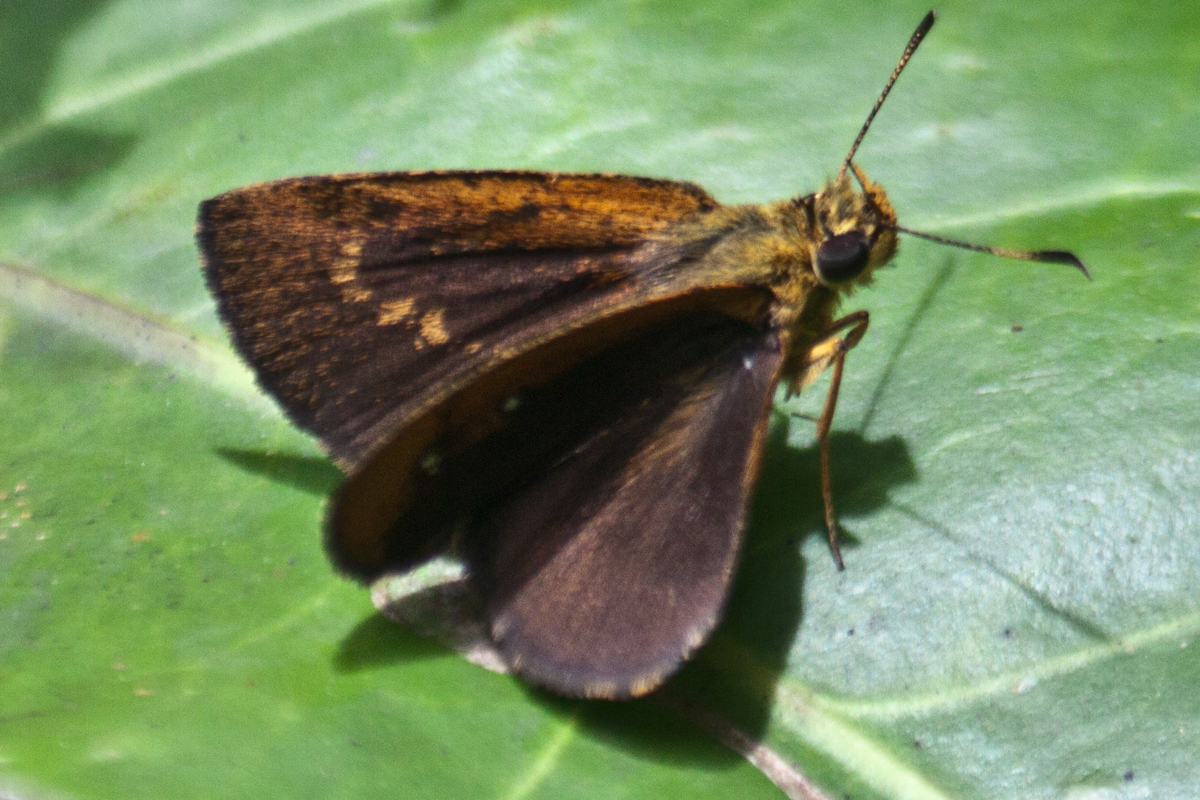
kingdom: Animalia
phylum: Arthropoda
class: Insecta
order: Lepidoptera
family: Hesperiidae
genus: Iambrix
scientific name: Iambrix salsala
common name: Chestnut bob
